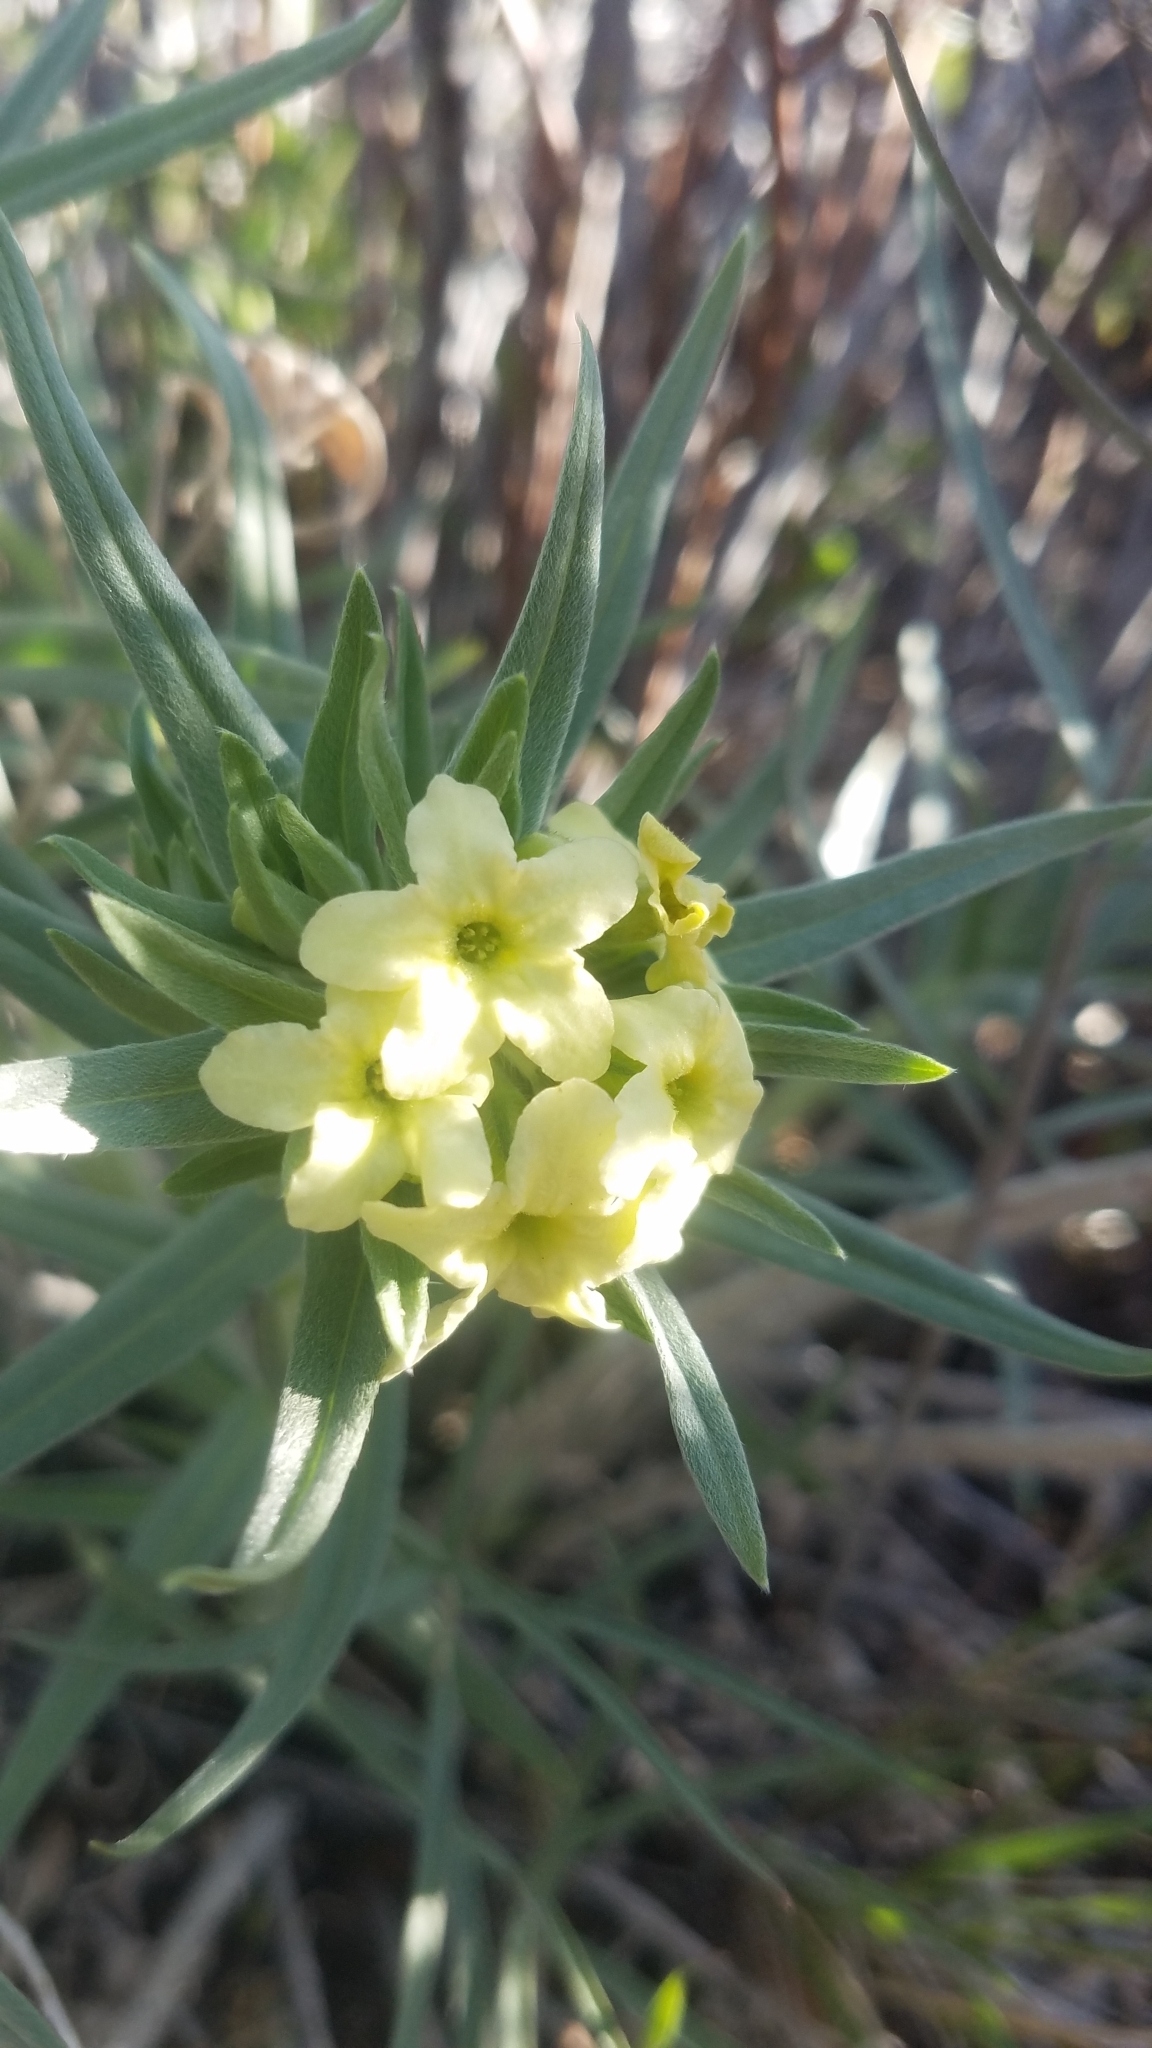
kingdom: Plantae
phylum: Tracheophyta
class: Magnoliopsida
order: Boraginales
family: Boraginaceae
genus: Lithospermum
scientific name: Lithospermum ruderale
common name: Western gromwell
